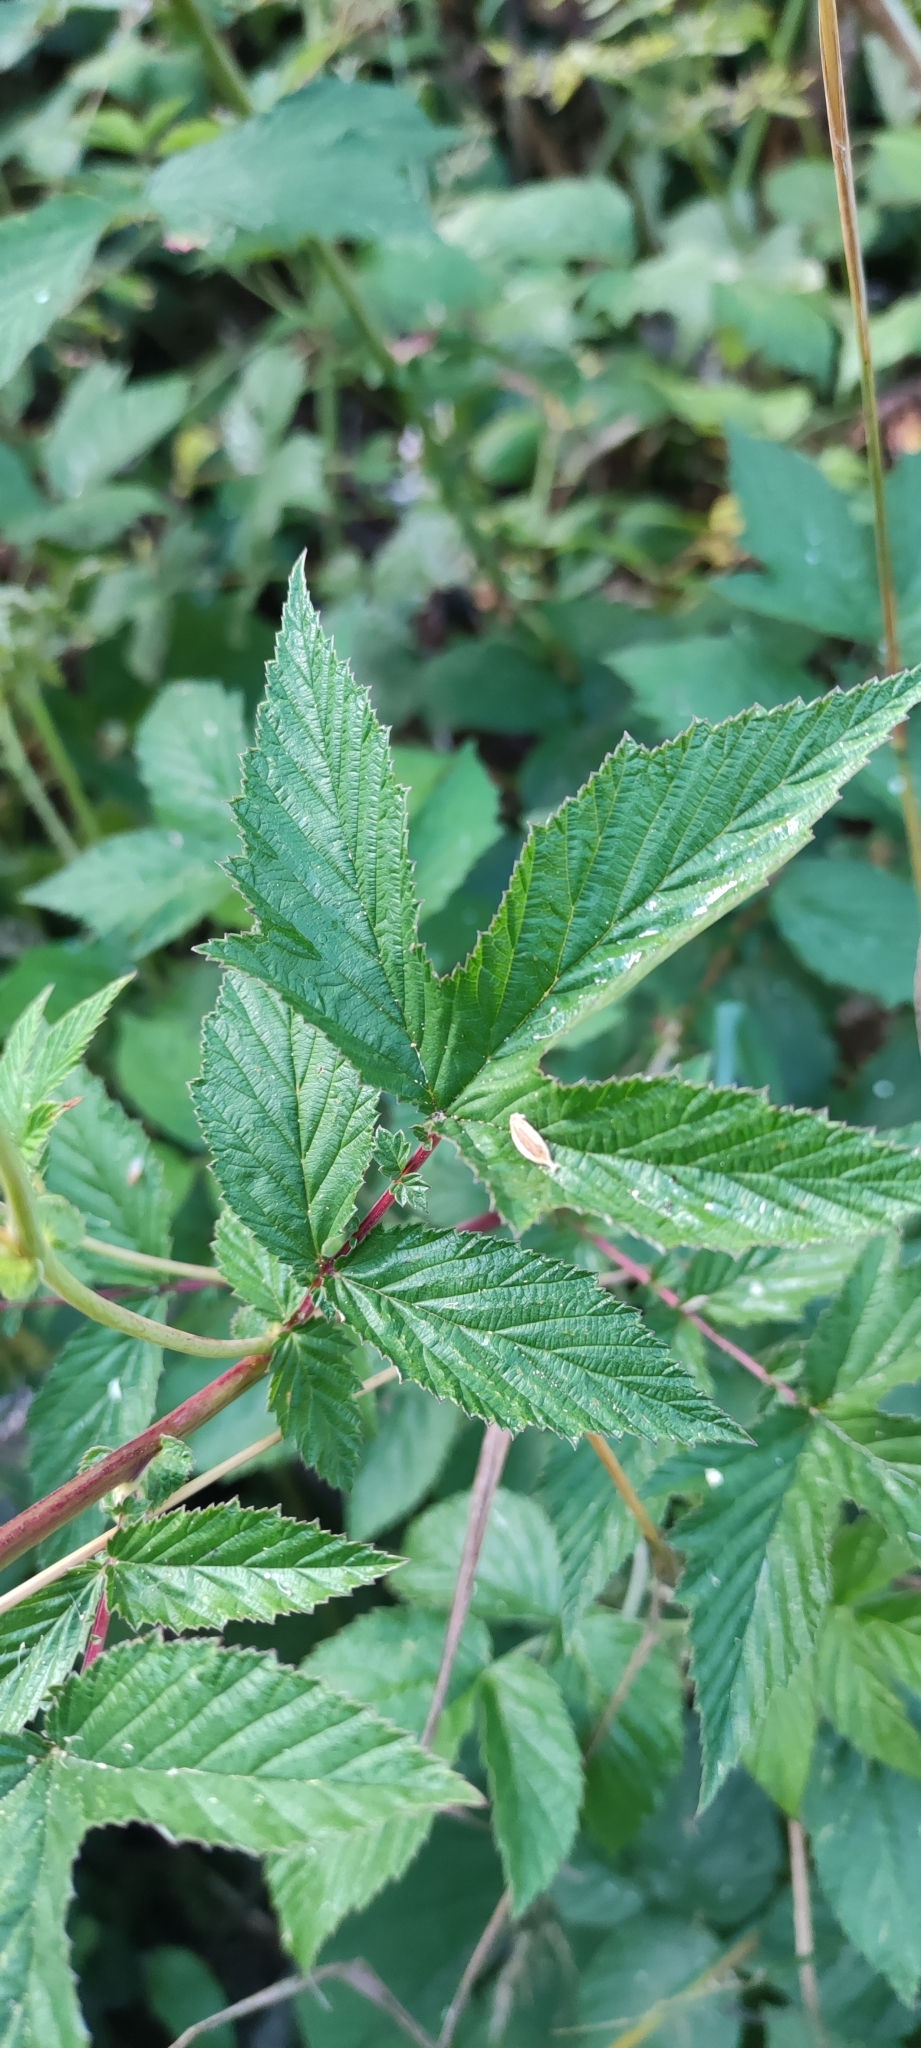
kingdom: Plantae
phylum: Tracheophyta
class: Magnoliopsida
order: Rosales
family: Rosaceae
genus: Filipendula
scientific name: Filipendula ulmaria
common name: Meadowsweet
